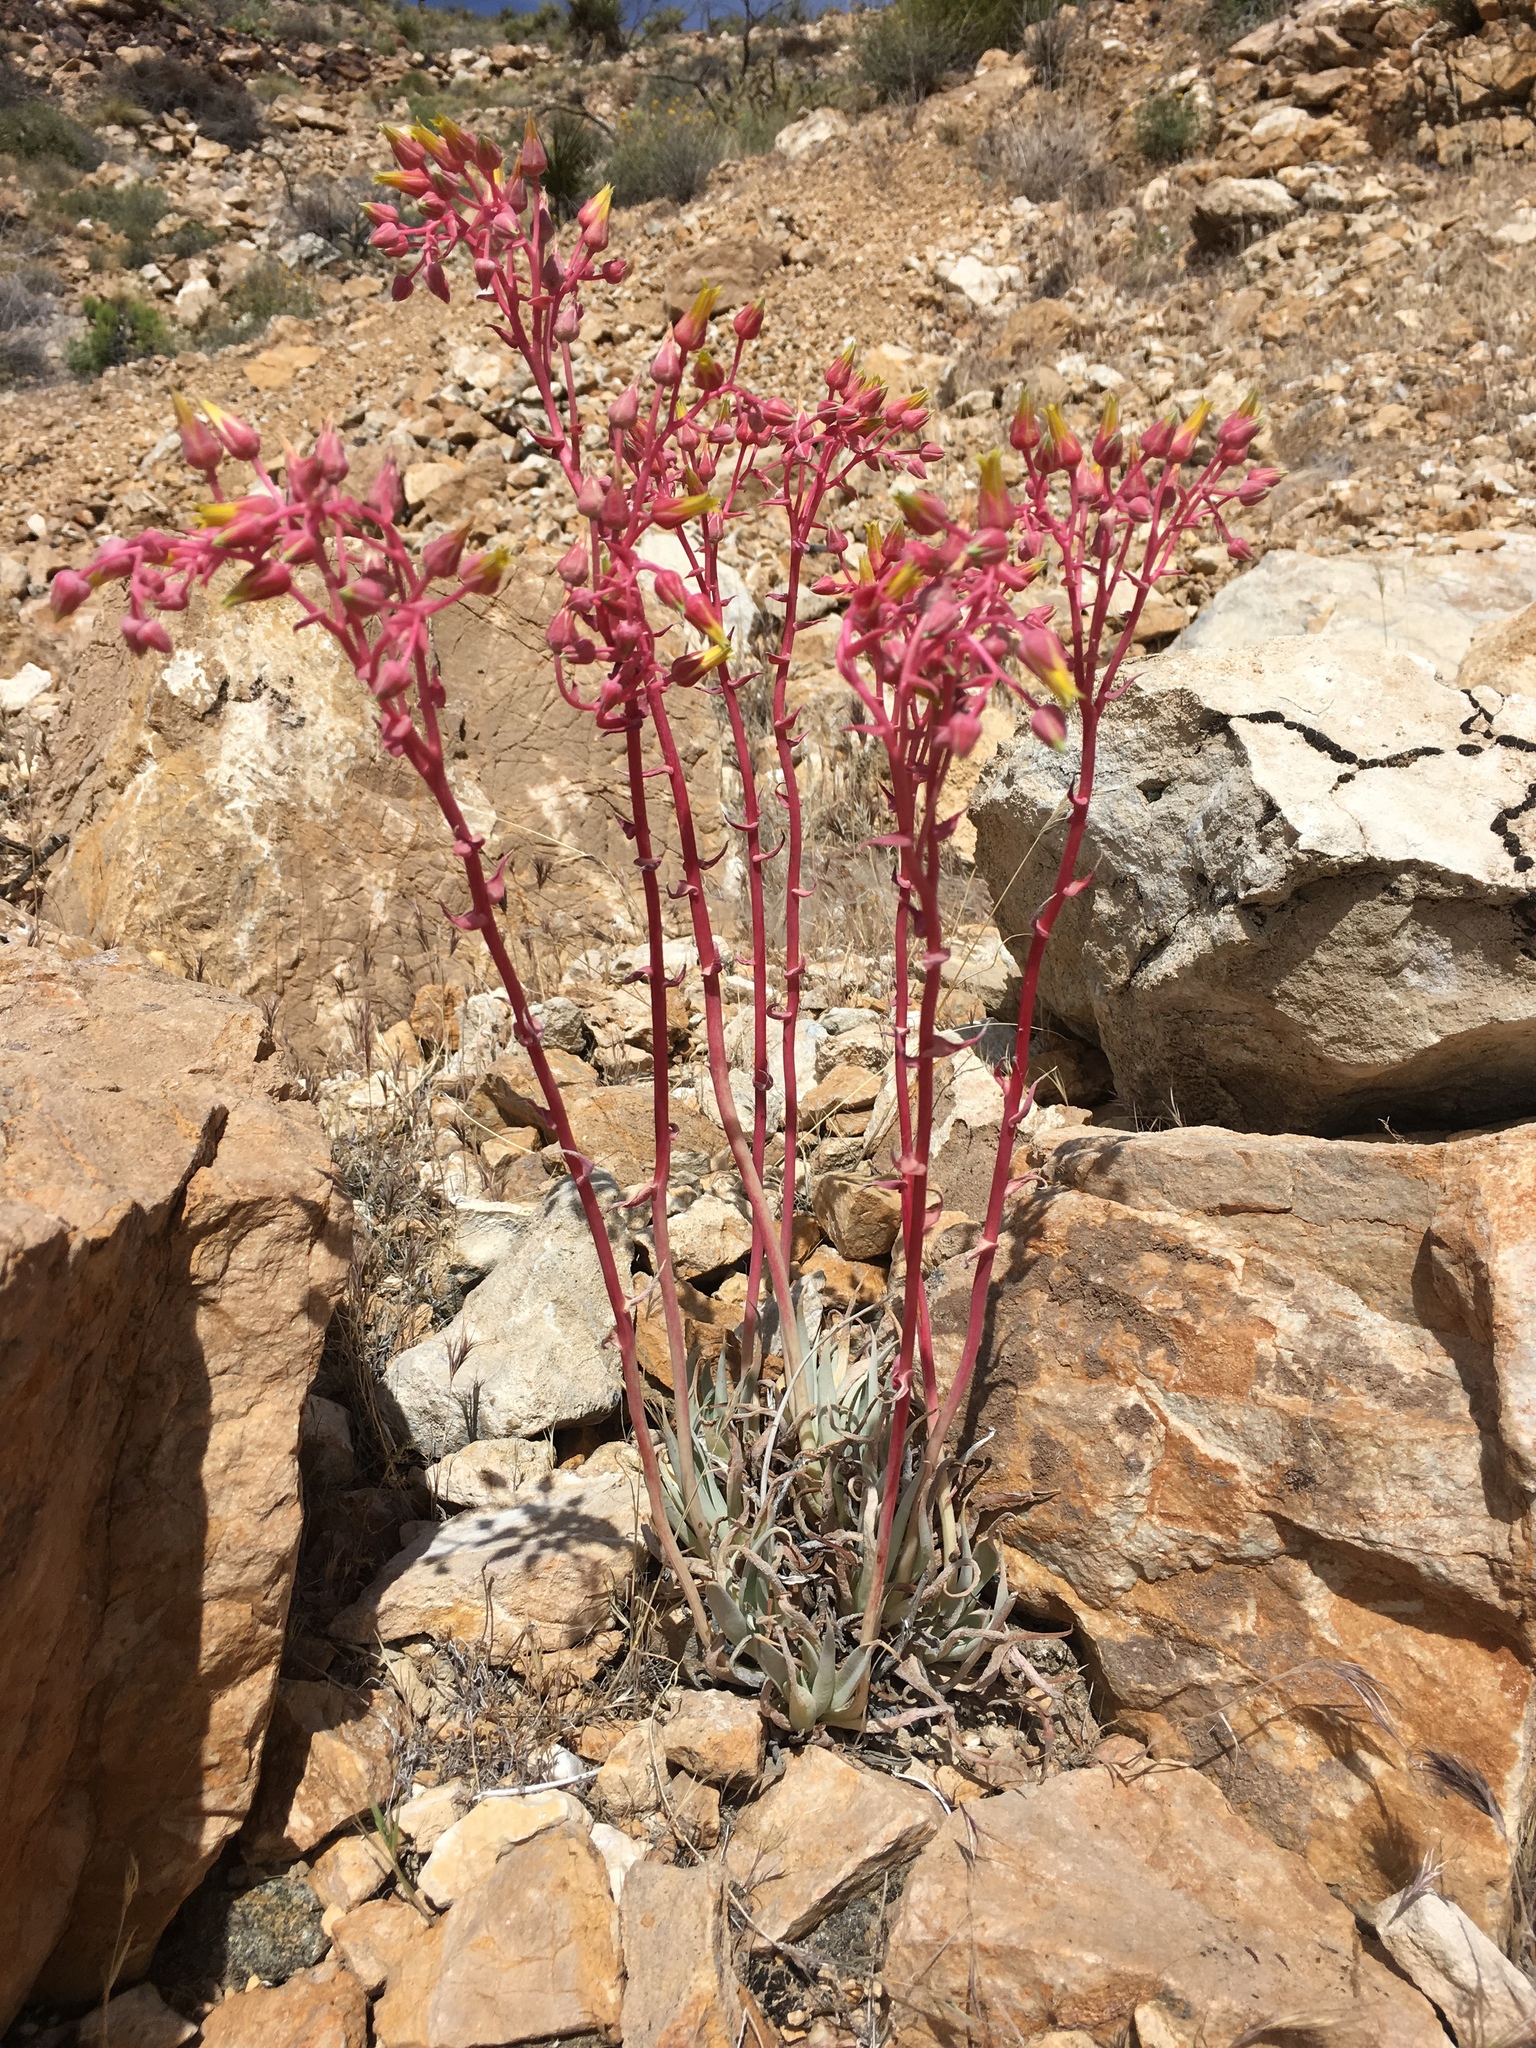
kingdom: Plantae
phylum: Tracheophyta
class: Magnoliopsida
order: Saxifragales
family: Crassulaceae
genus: Dudleya
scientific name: Dudleya saxosa
